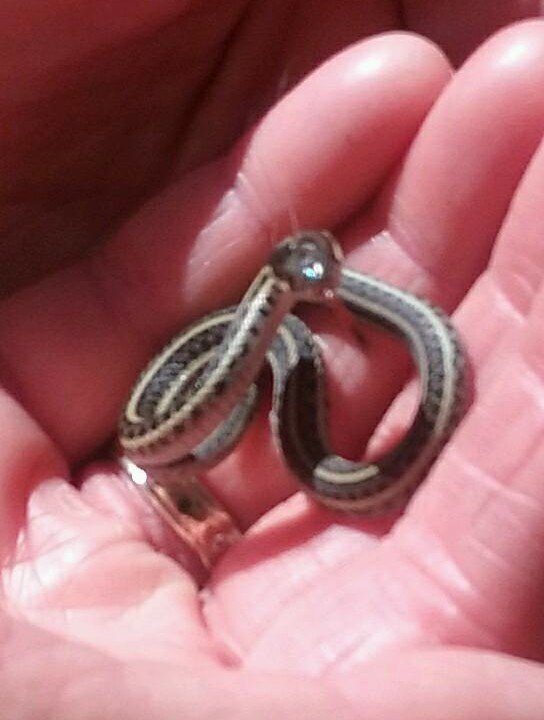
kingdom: Animalia
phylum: Chordata
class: Squamata
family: Colubridae
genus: Thamnophis
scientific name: Thamnophis ordinoides
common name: Northwestern garter snake
